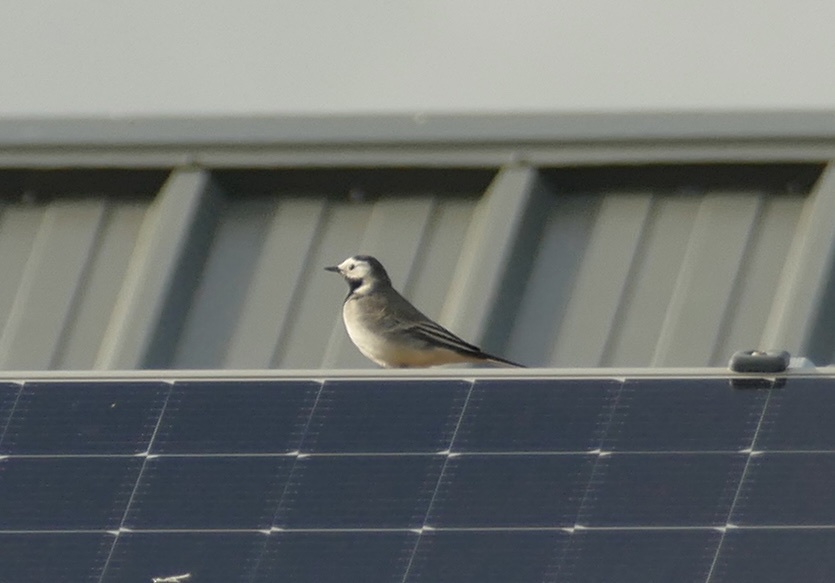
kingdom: Animalia
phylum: Chordata
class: Aves
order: Passeriformes
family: Motacillidae
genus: Motacilla
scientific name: Motacilla alba
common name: White wagtail
